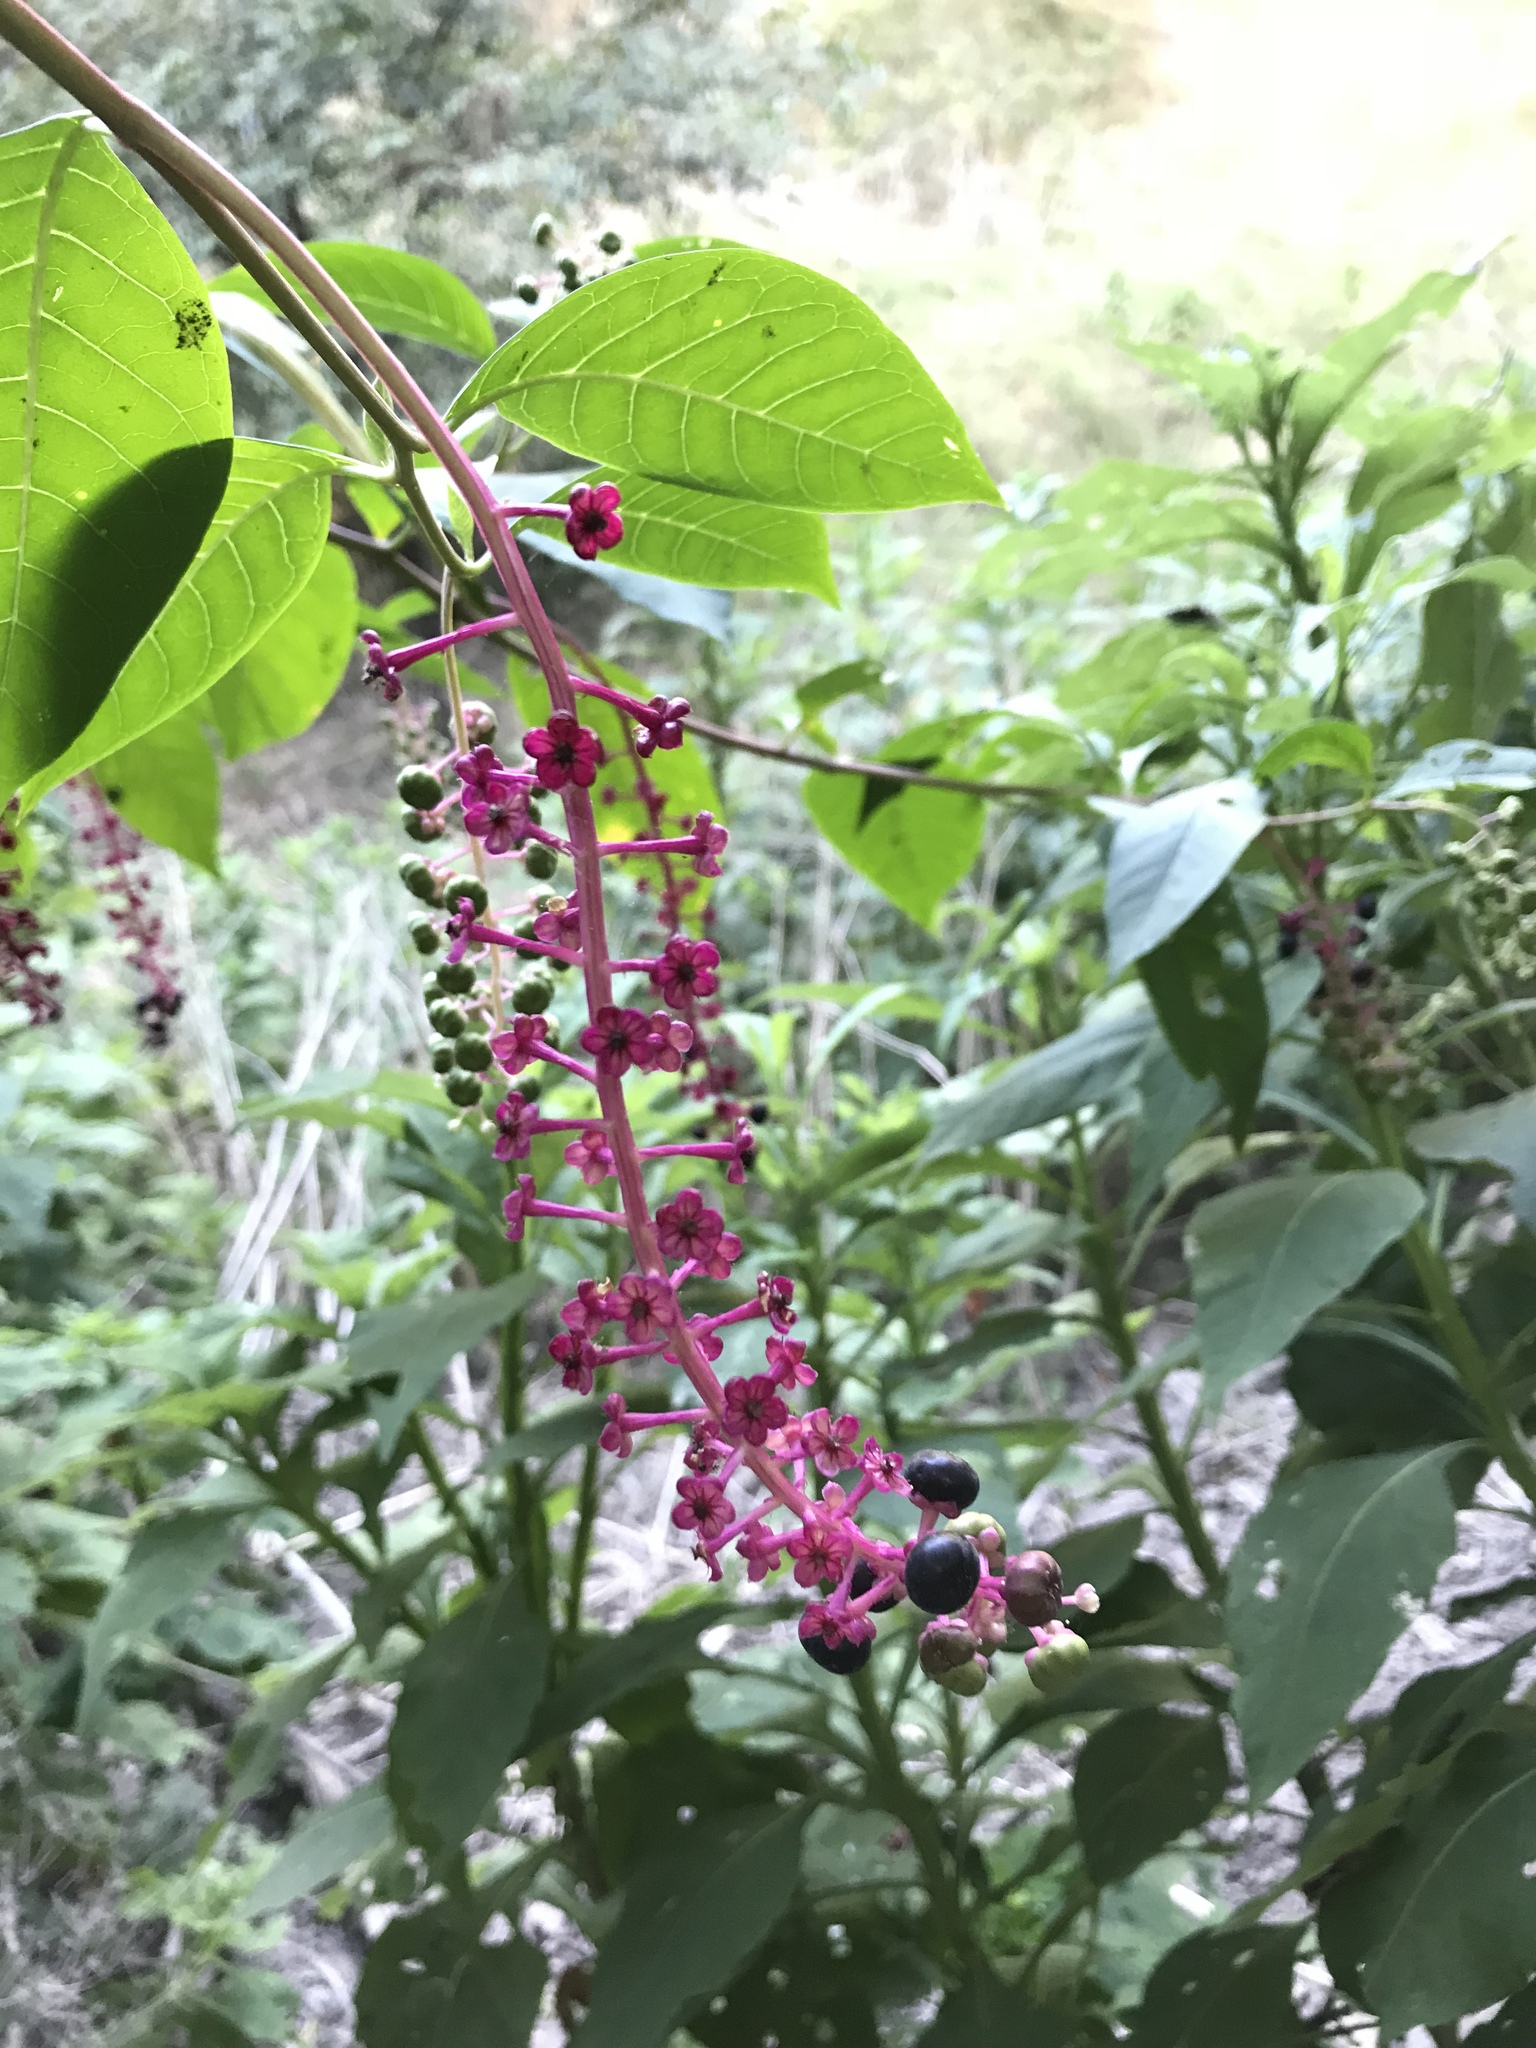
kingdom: Plantae
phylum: Tracheophyta
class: Magnoliopsida
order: Caryophyllales
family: Phytolaccaceae
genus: Phytolacca
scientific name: Phytolacca americana
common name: American pokeweed
